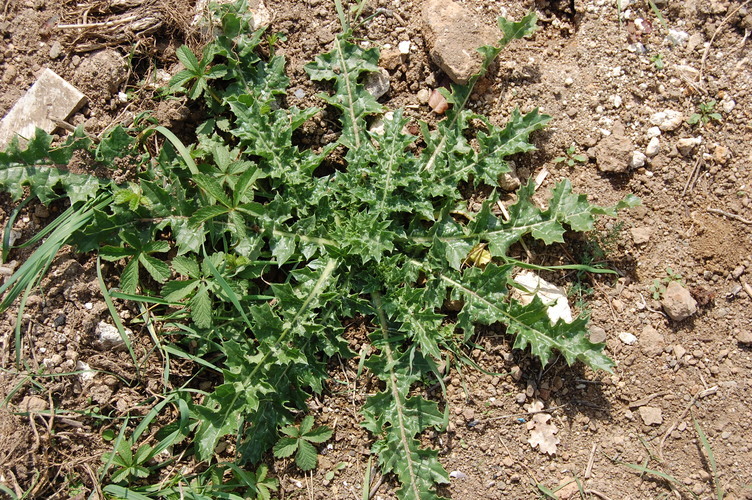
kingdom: Plantae
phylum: Tracheophyta
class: Magnoliopsida
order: Asterales
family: Asteraceae
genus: Carduus
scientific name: Carduus pycnocephalus
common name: Plymouth thistle
